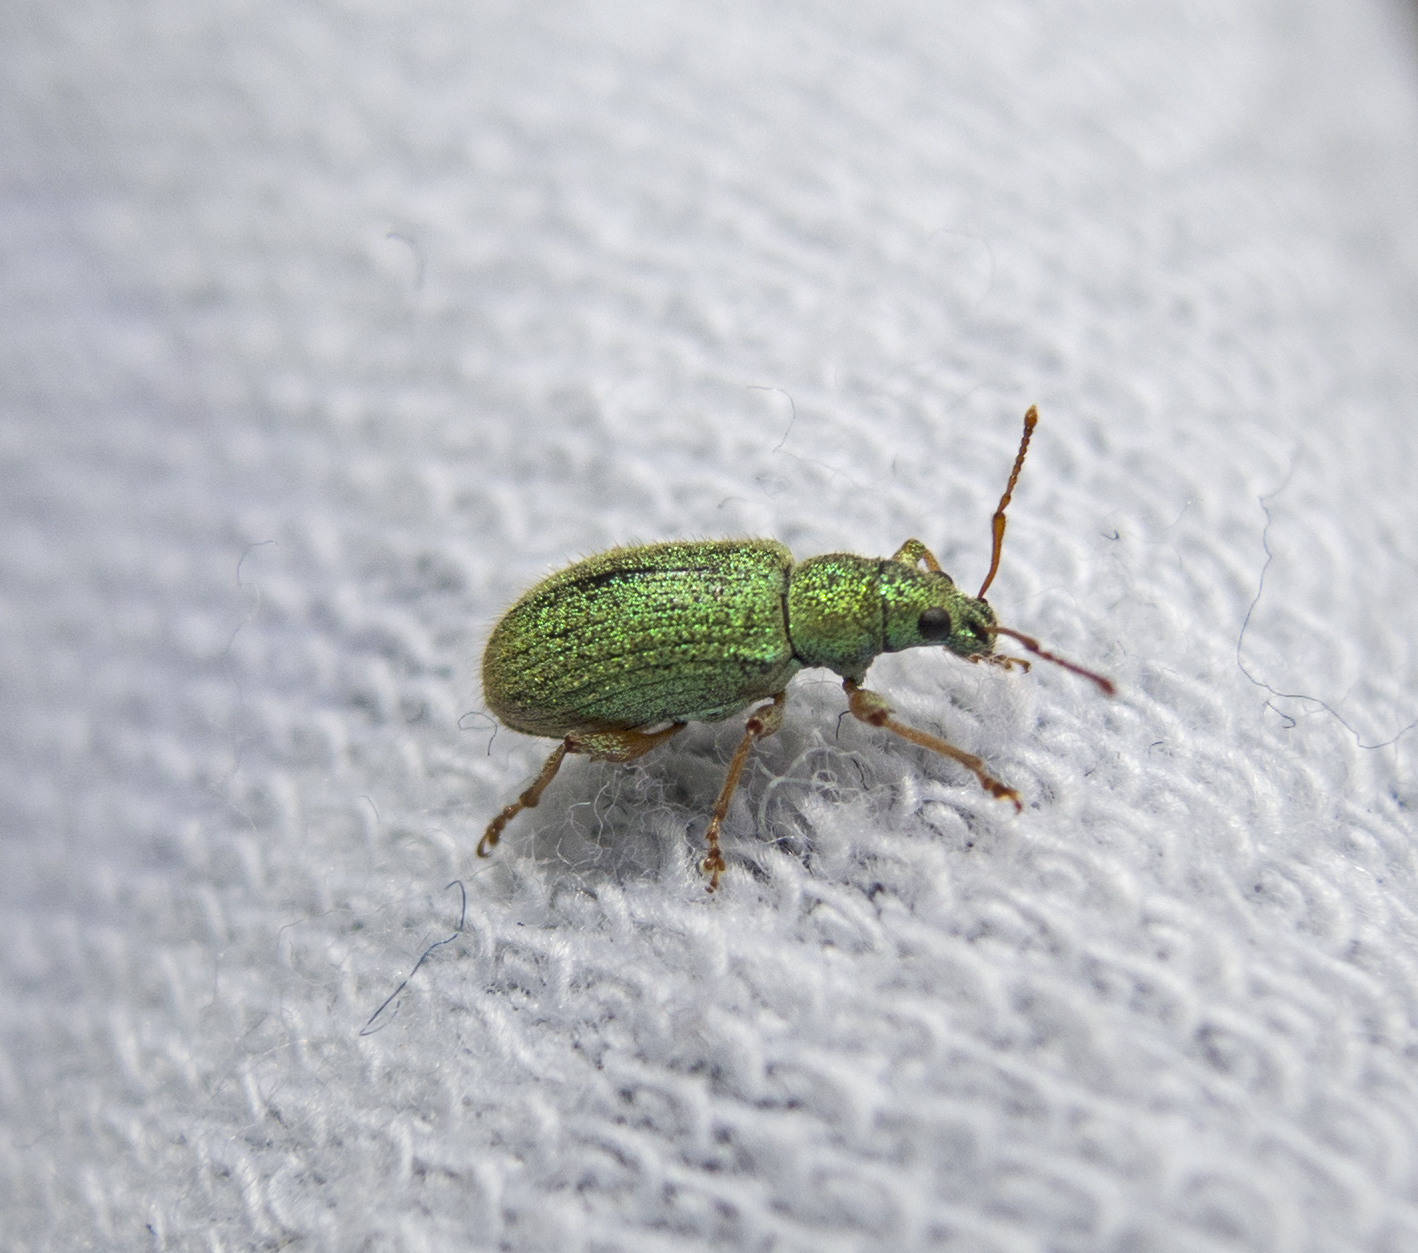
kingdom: Animalia
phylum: Arthropoda
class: Insecta
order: Coleoptera
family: Curculionidae
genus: Phyllobius
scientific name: Phyllobius argentatus
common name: Silver-green leaf weevil
